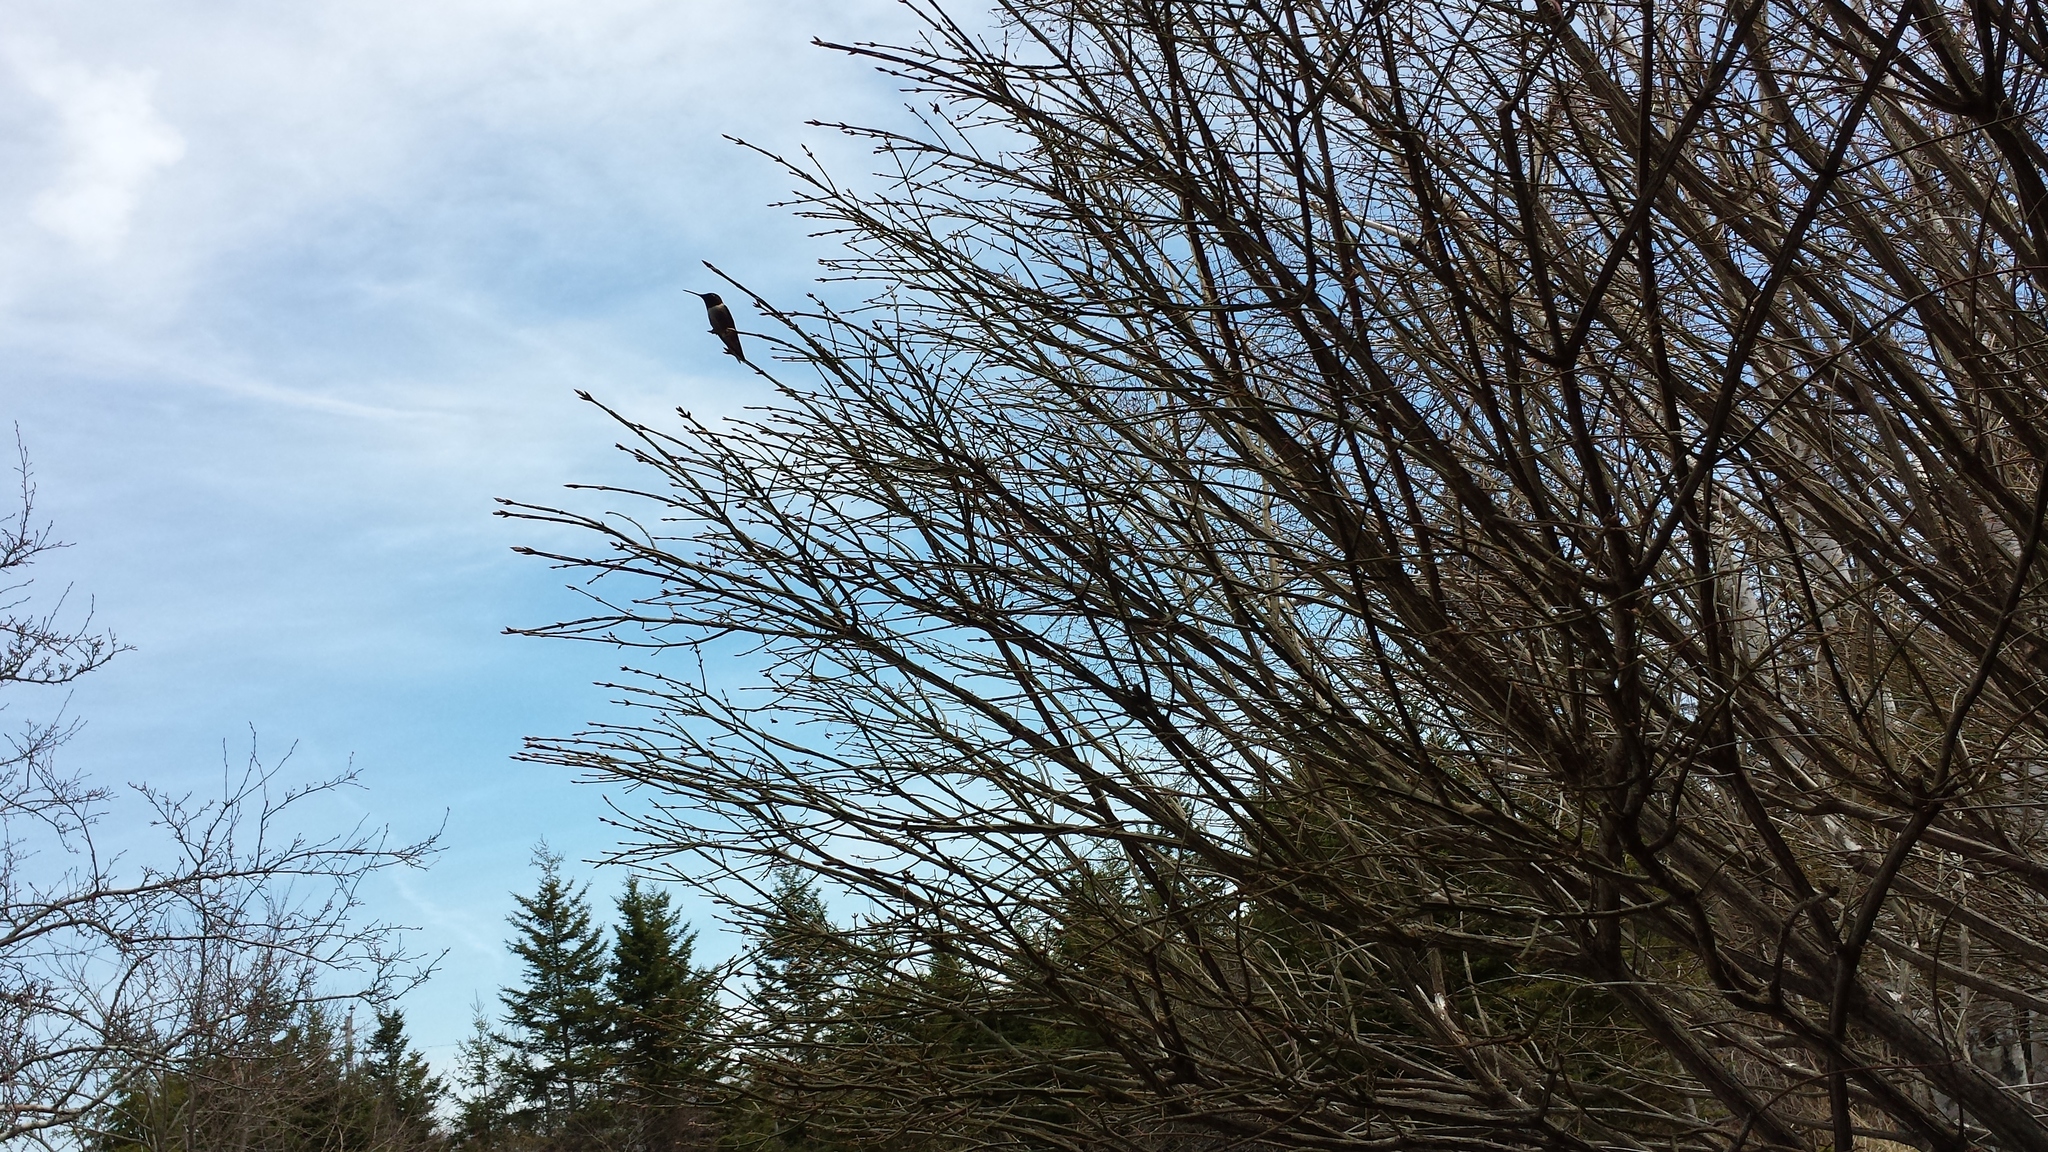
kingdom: Animalia
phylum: Chordata
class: Aves
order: Apodiformes
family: Trochilidae
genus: Archilochus
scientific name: Archilochus colubris
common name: Ruby-throated hummingbird
